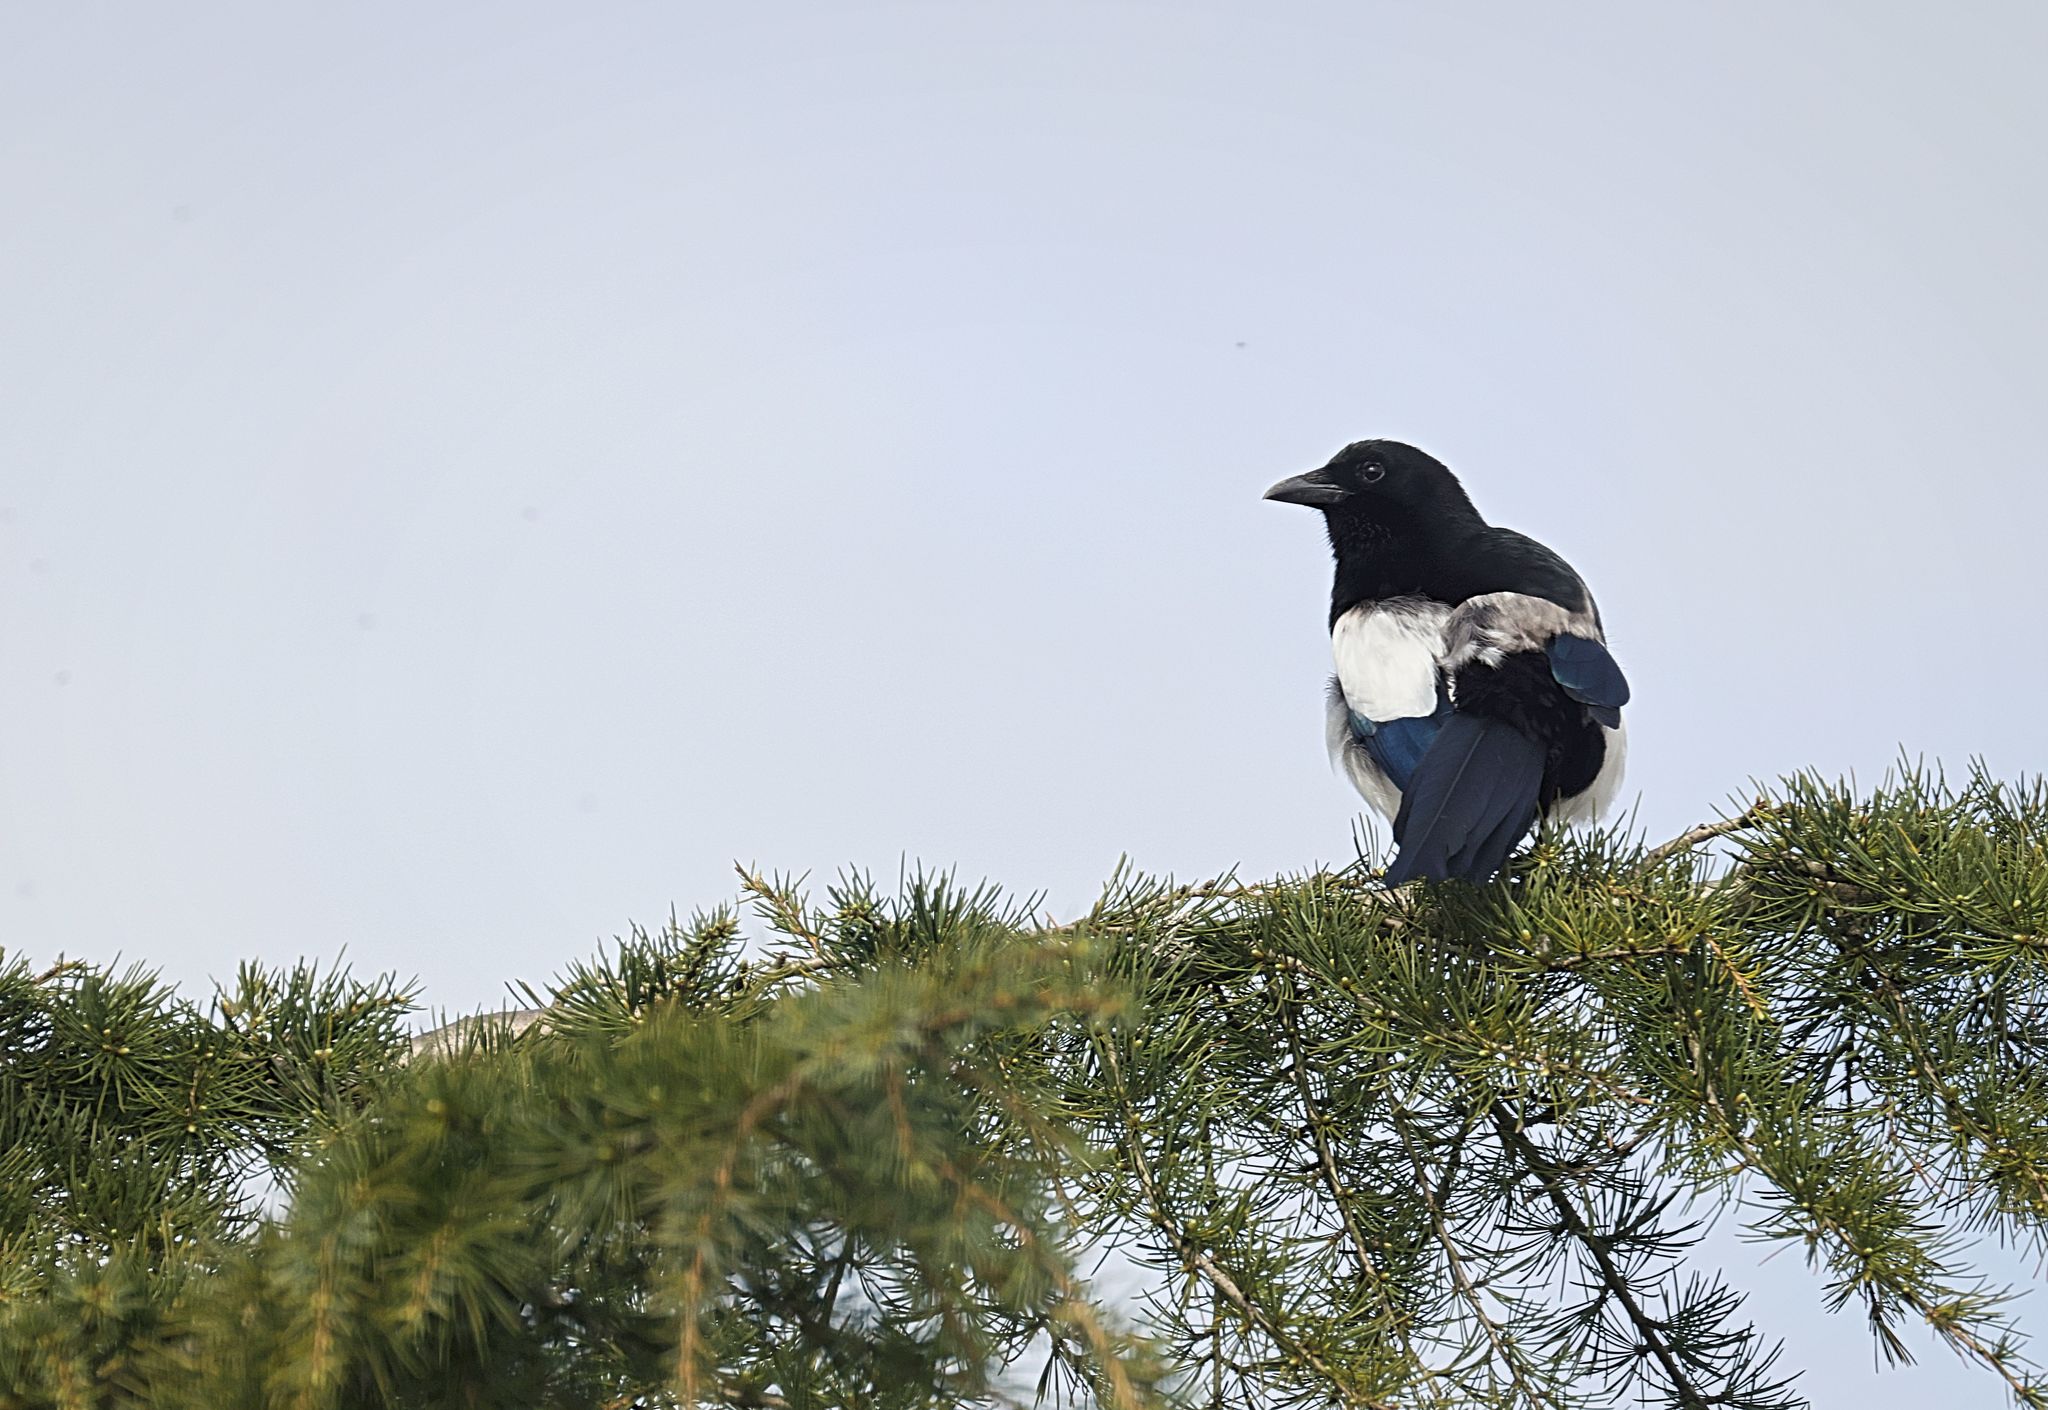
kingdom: Animalia
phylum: Chordata
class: Aves
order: Passeriformes
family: Corvidae
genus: Pica
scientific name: Pica pica
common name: Eurasian magpie
